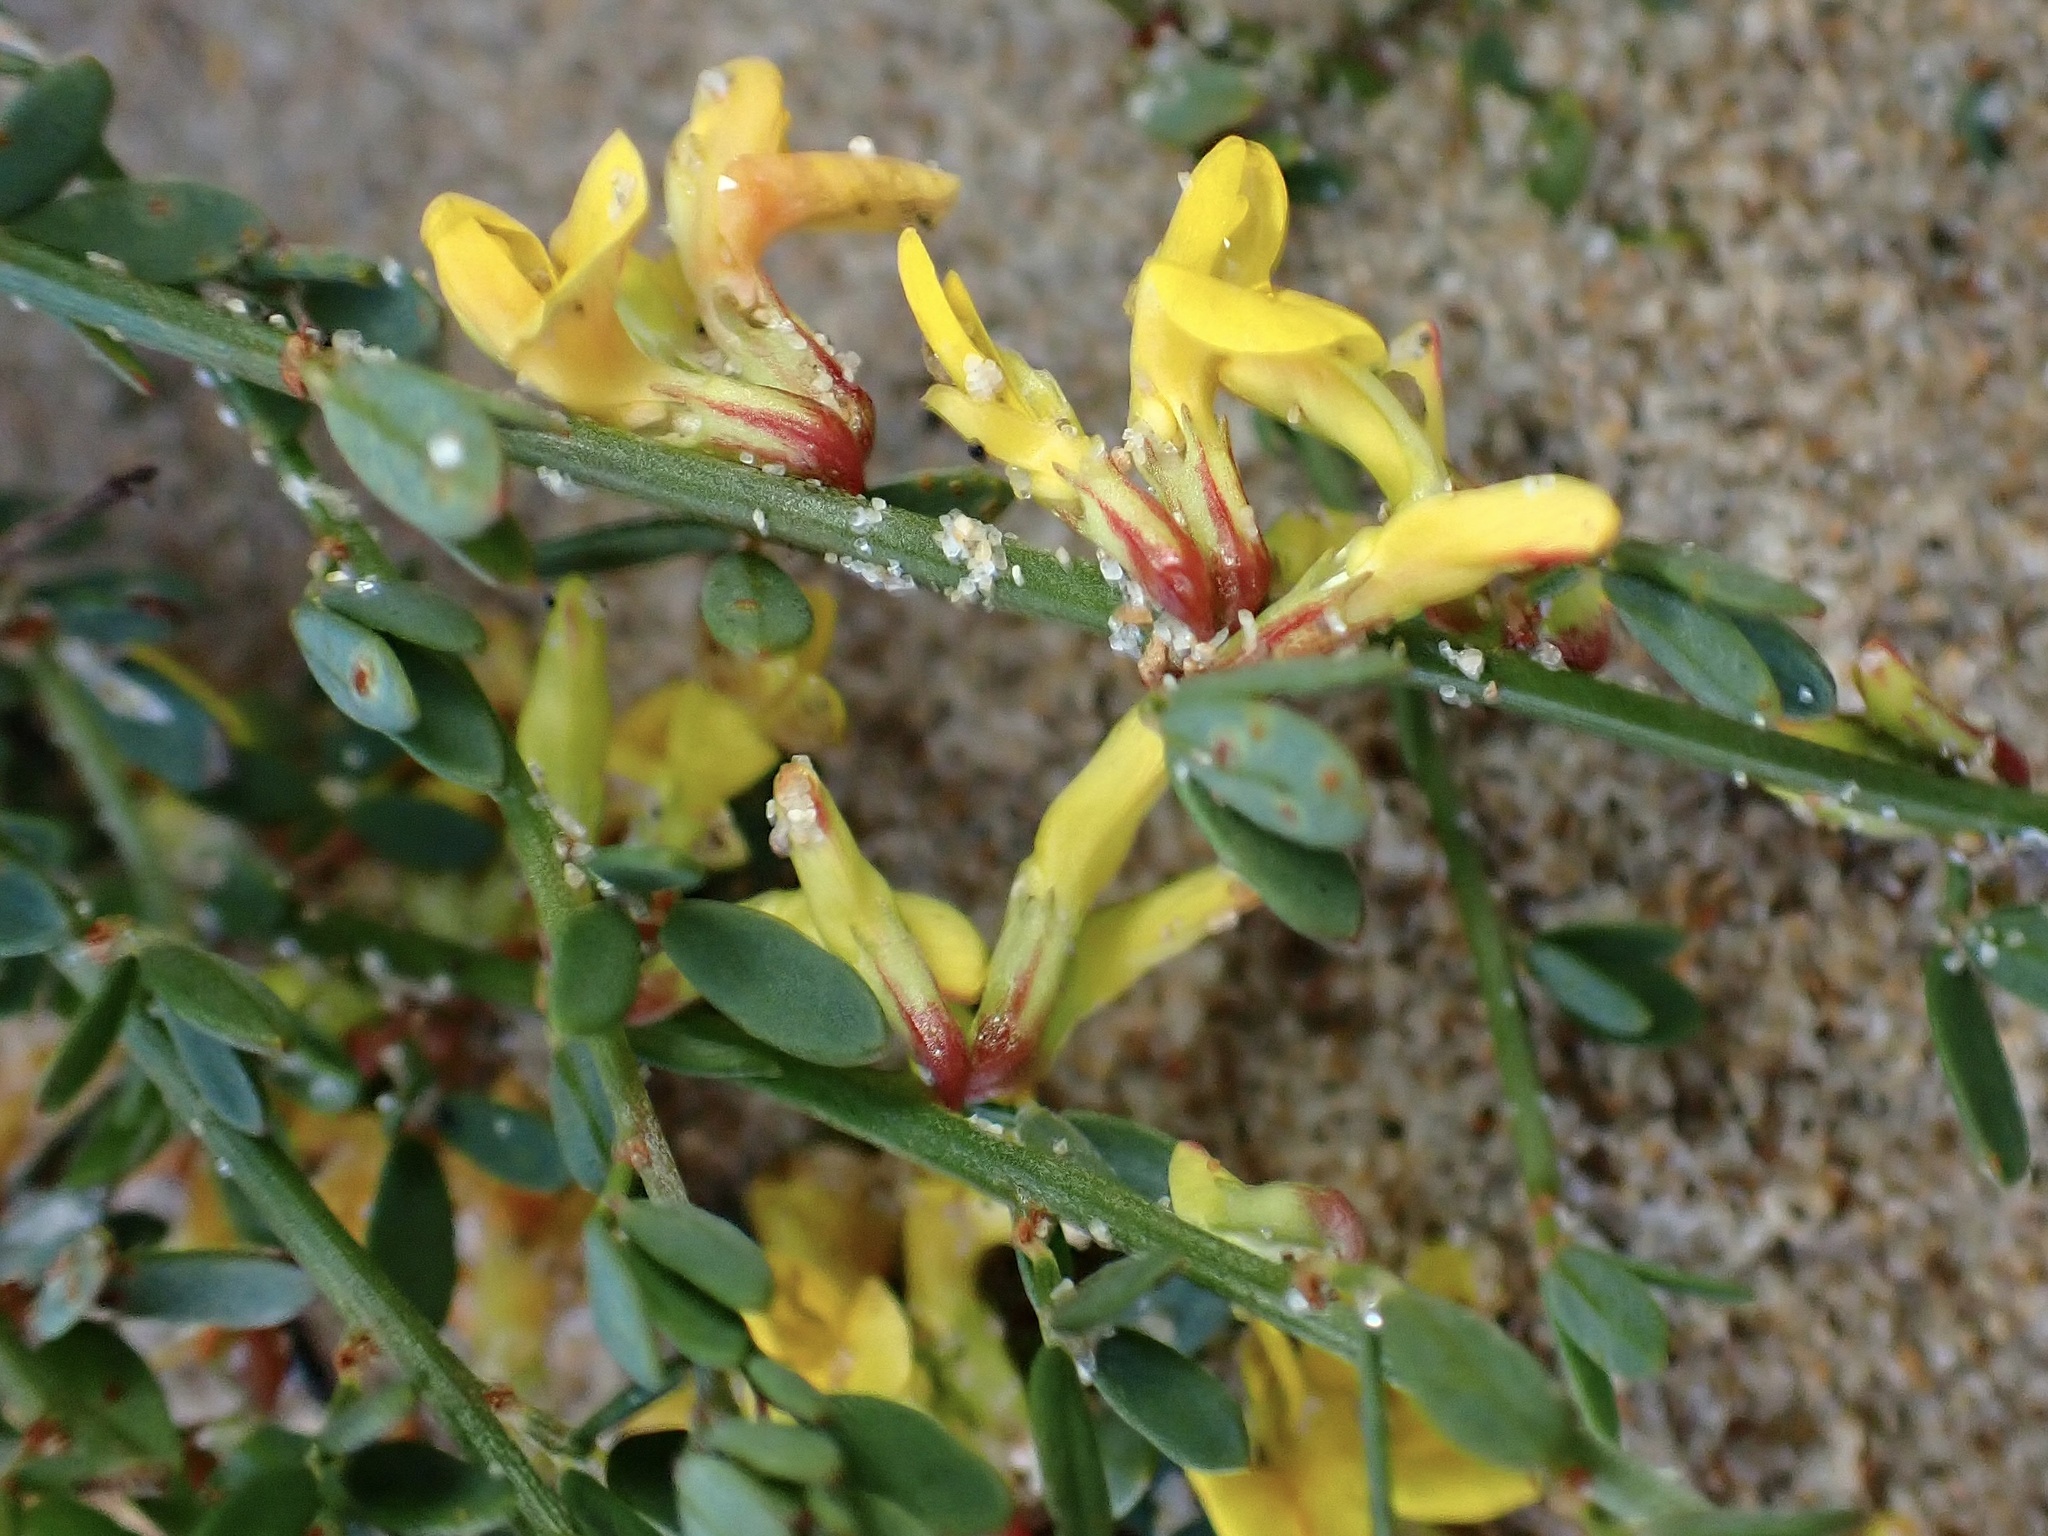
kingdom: Plantae
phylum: Tracheophyta
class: Magnoliopsida
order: Fabales
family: Fabaceae
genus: Acmispon
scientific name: Acmispon glaber
